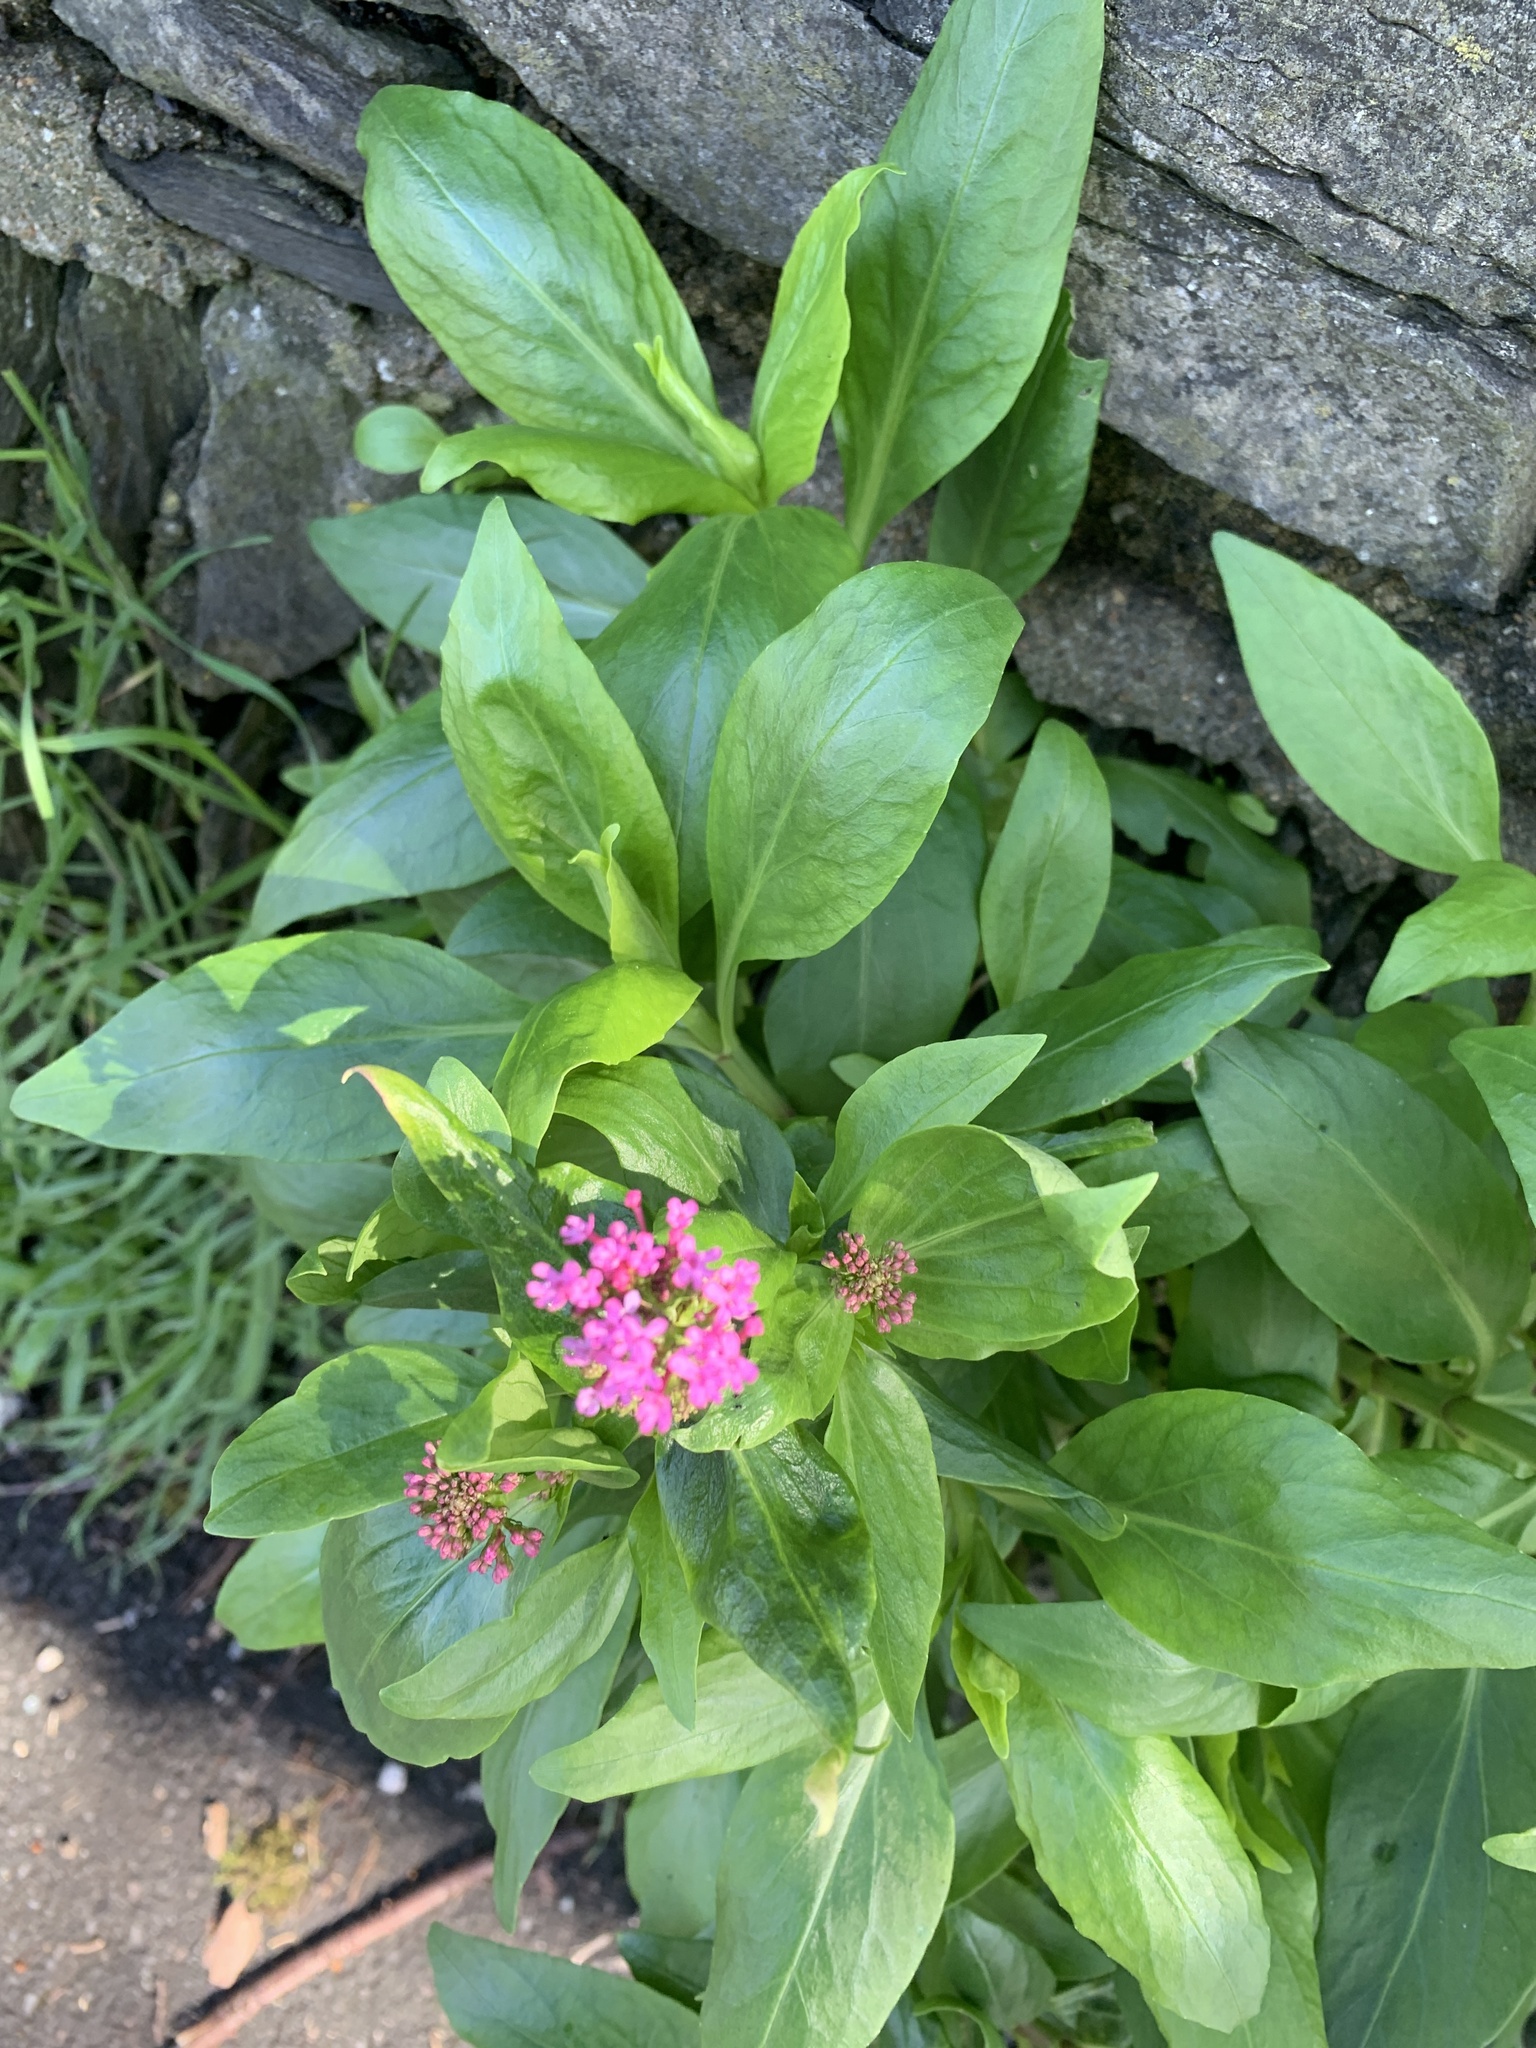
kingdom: Plantae
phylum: Tracheophyta
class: Magnoliopsida
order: Dipsacales
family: Caprifoliaceae
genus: Centranthus
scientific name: Centranthus ruber
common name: Red valerian
